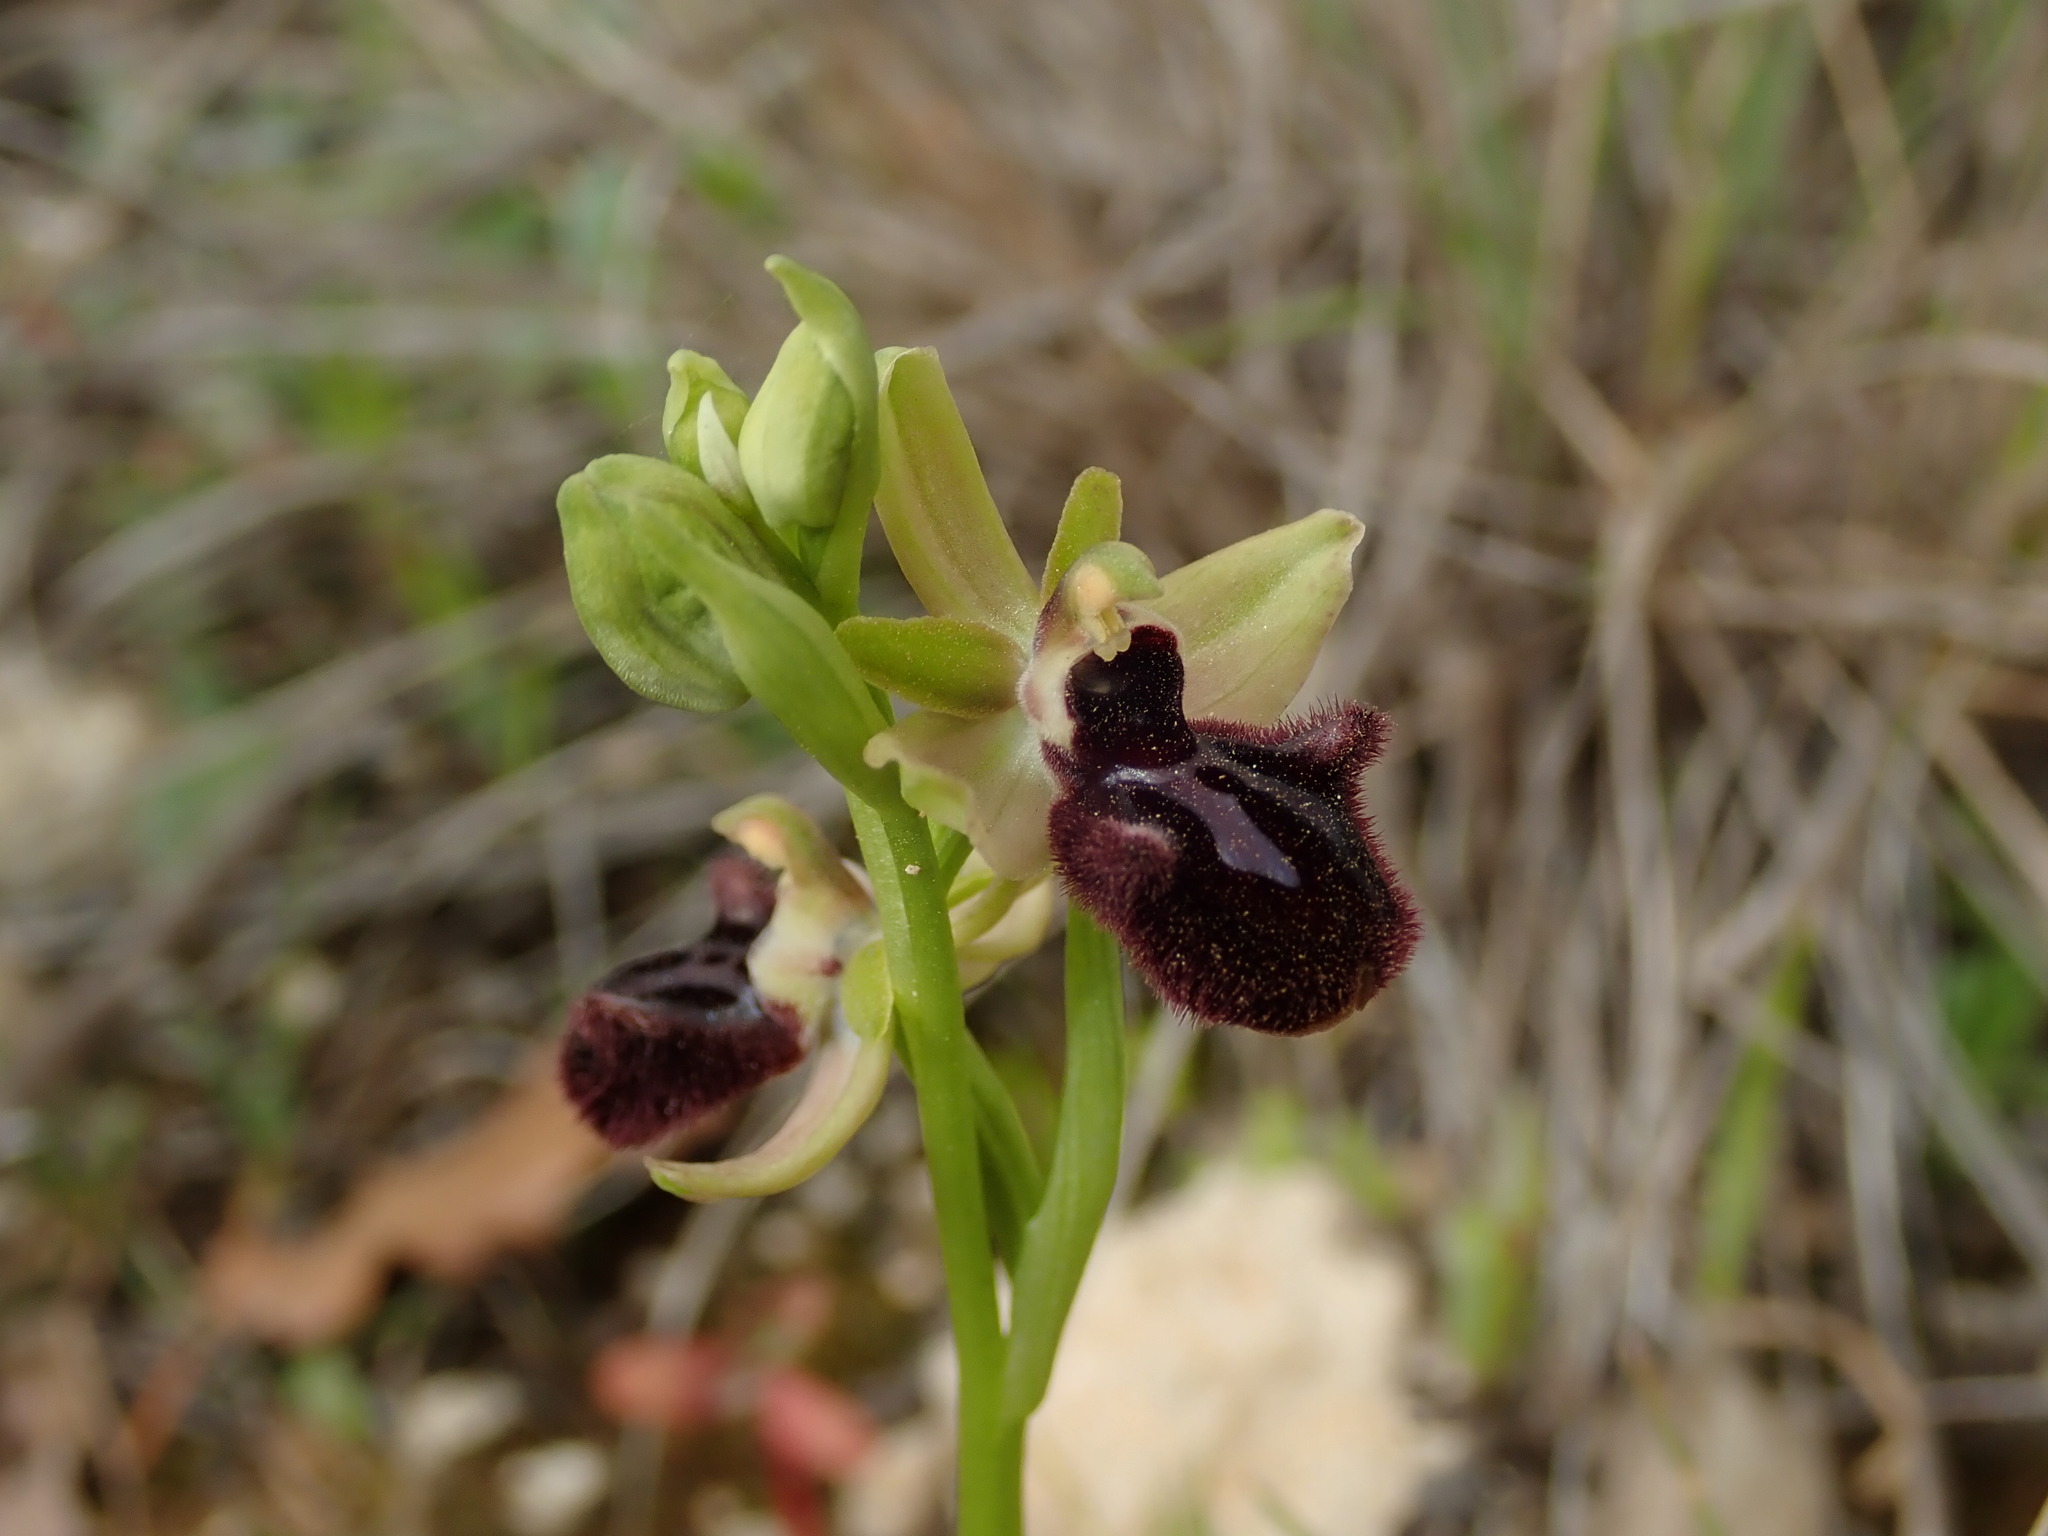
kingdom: Plantae
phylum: Tracheophyta
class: Liliopsida
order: Asparagales
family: Orchidaceae
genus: Ophrys
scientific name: Ophrys sphegodes
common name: Early spider-orchid
